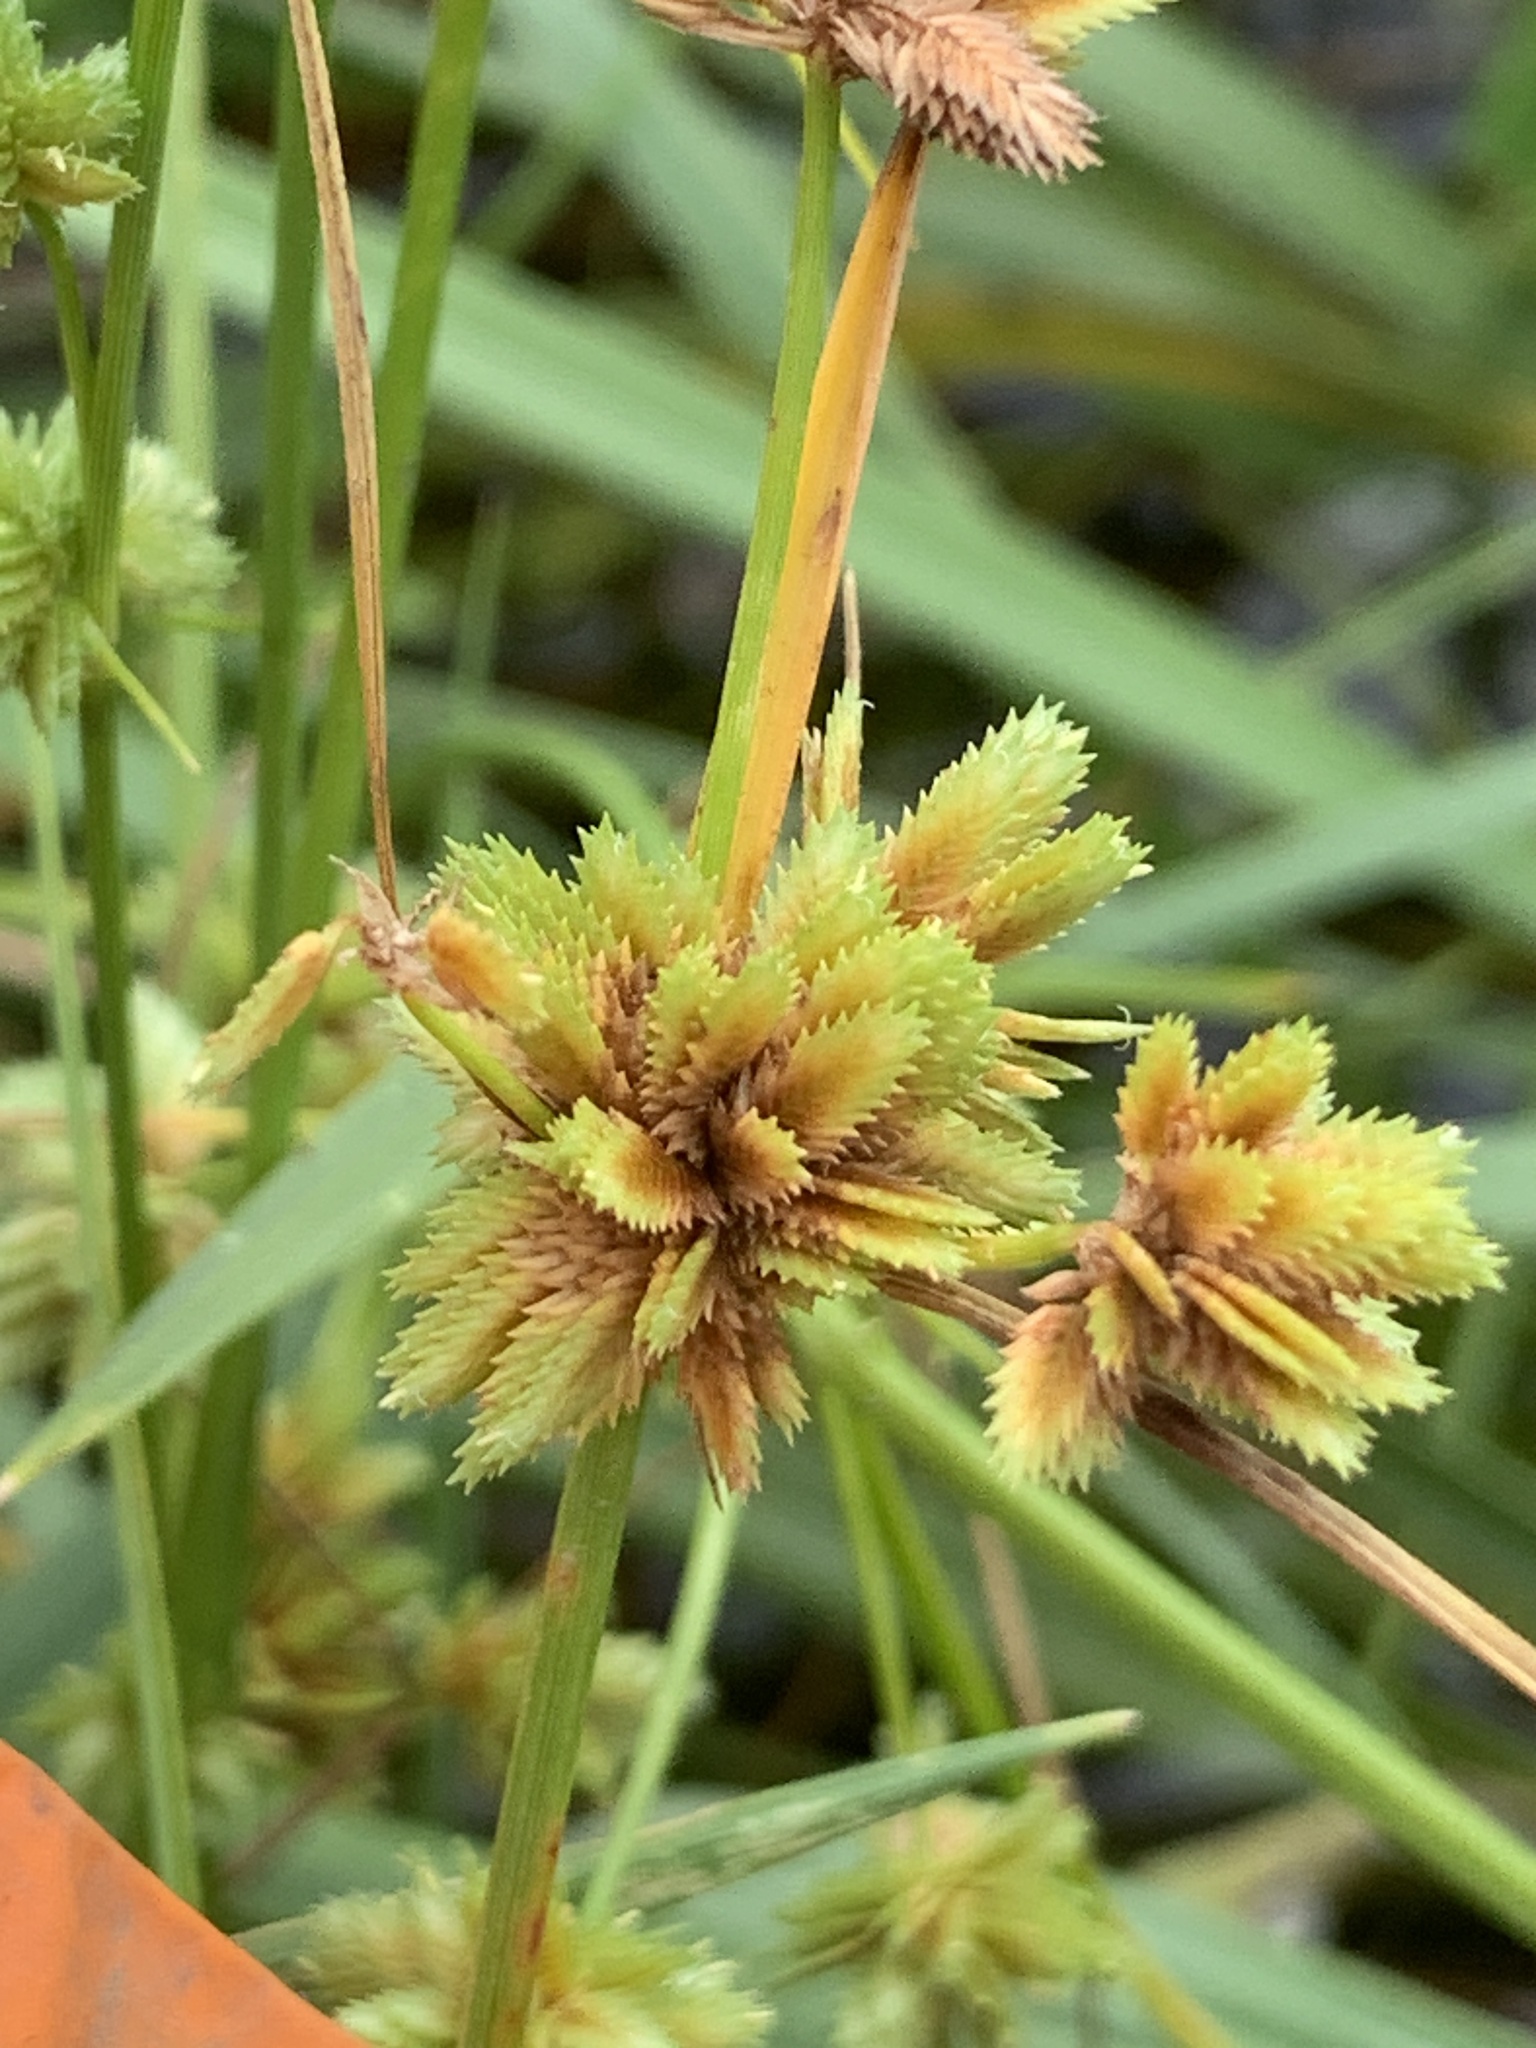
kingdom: Plantae
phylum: Tracheophyta
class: Liliopsida
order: Poales
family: Cyperaceae
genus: Cyperus
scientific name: Cyperus acuminatus
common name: Short-pointed cyperus
